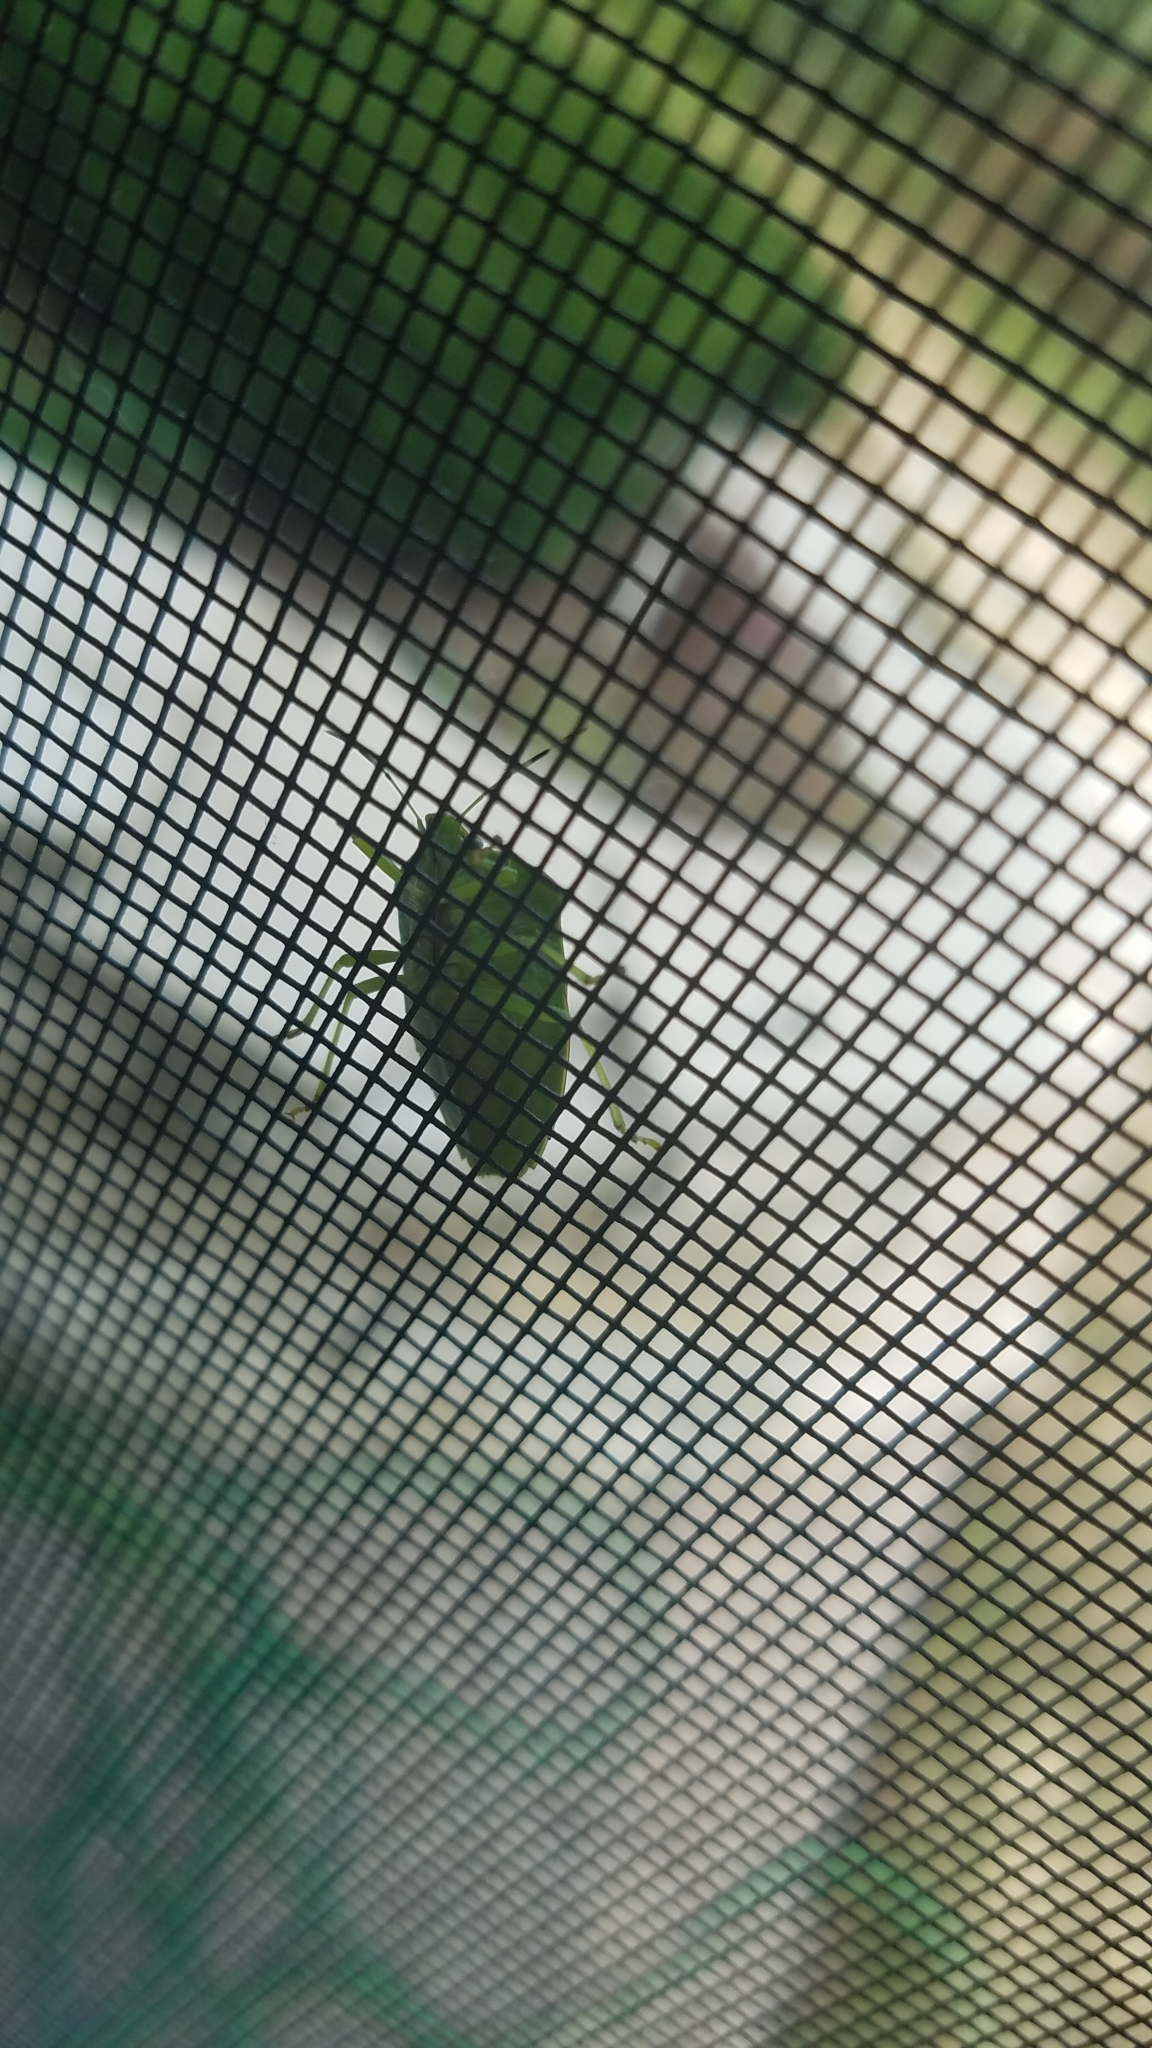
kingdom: Animalia
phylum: Arthropoda
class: Insecta
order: Hemiptera
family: Pentatomidae
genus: Chinavia
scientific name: Chinavia hilaris
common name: Green stink bug
